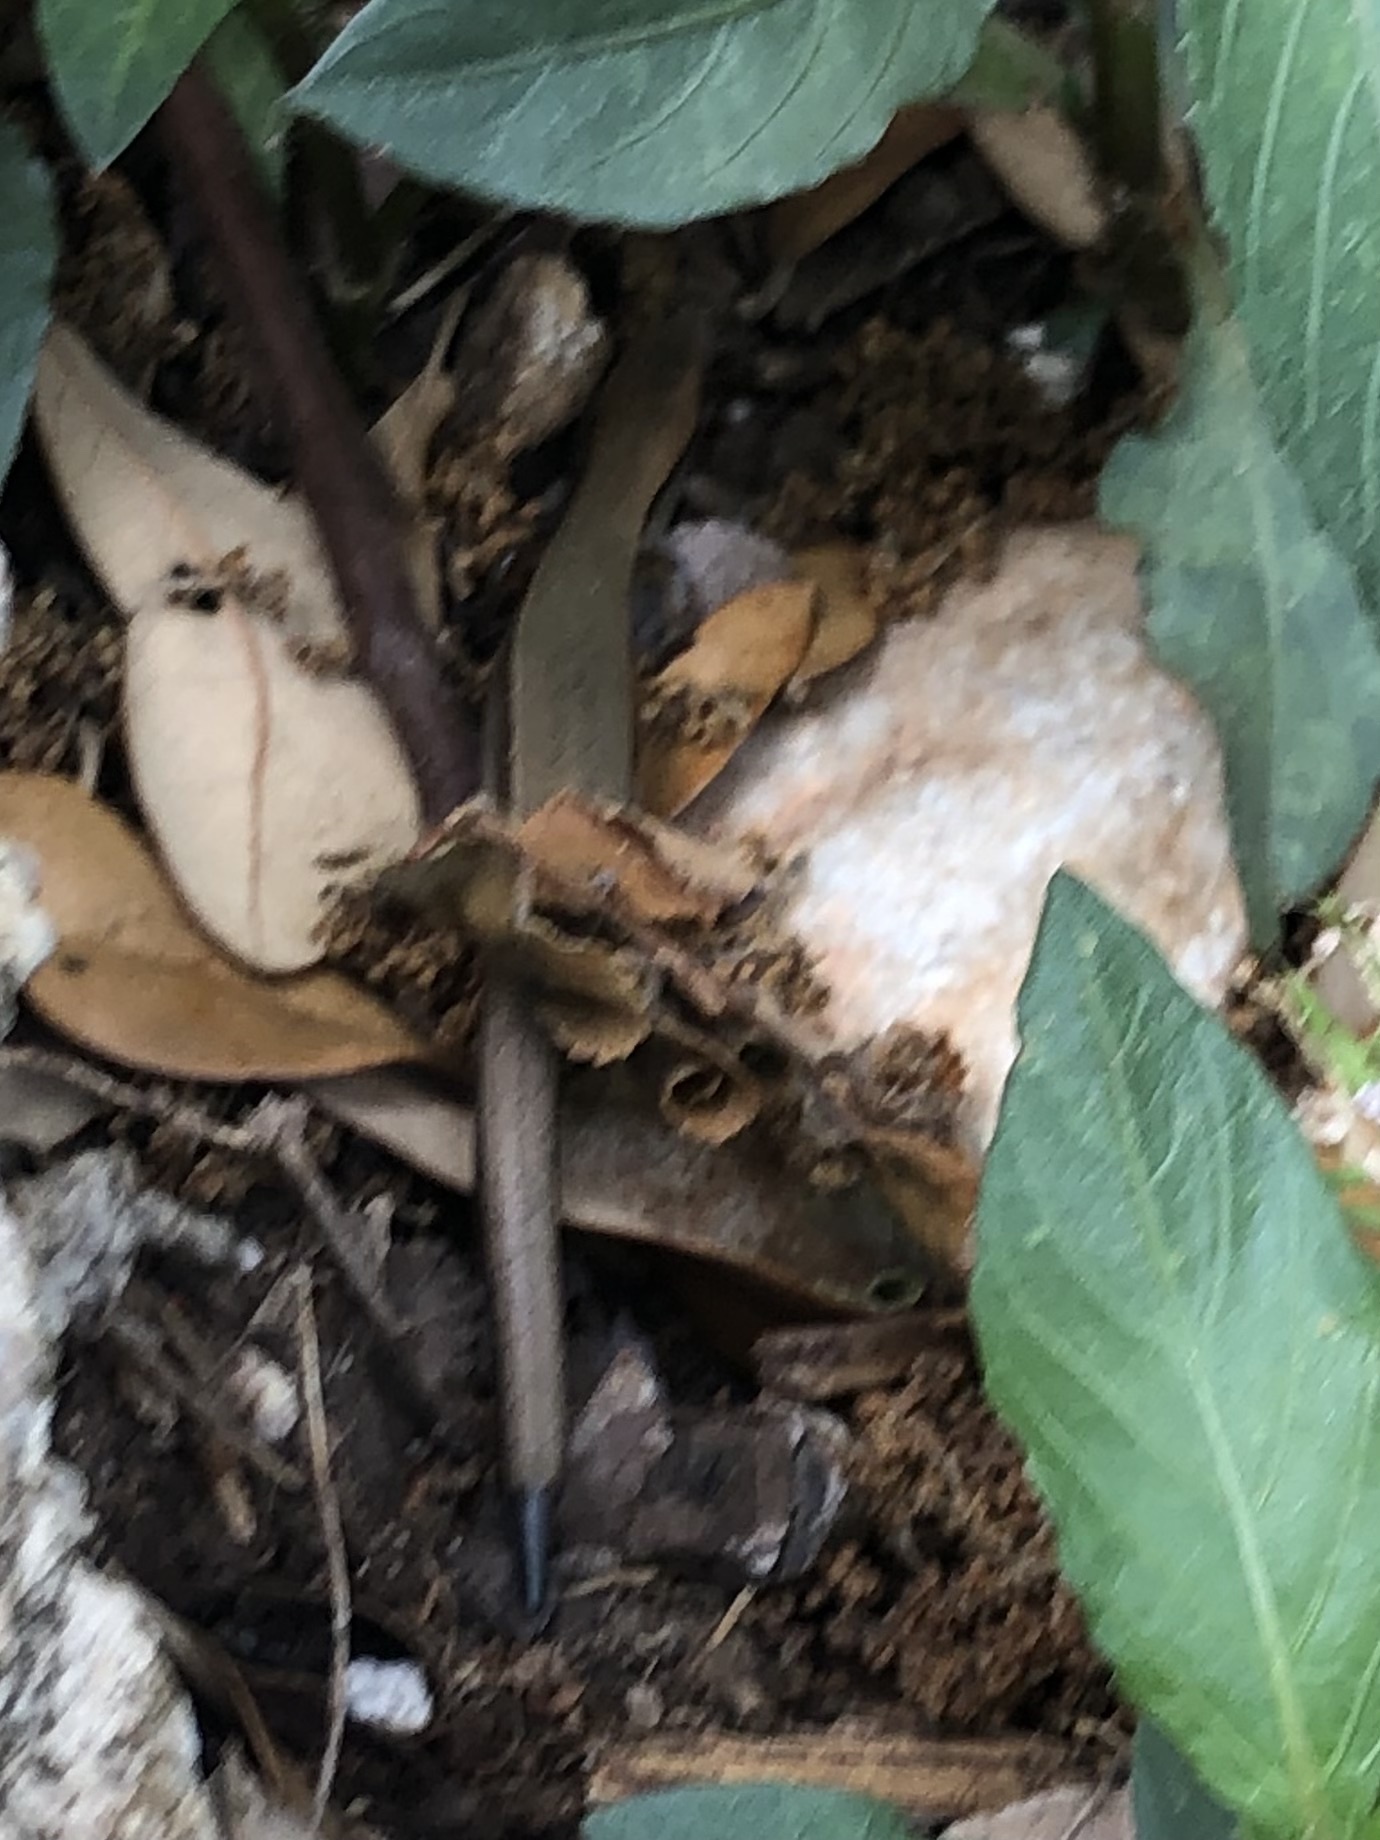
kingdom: Animalia
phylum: Chordata
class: Squamata
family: Scincidae
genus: Scincella
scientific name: Scincella lateralis
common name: Ground skink
